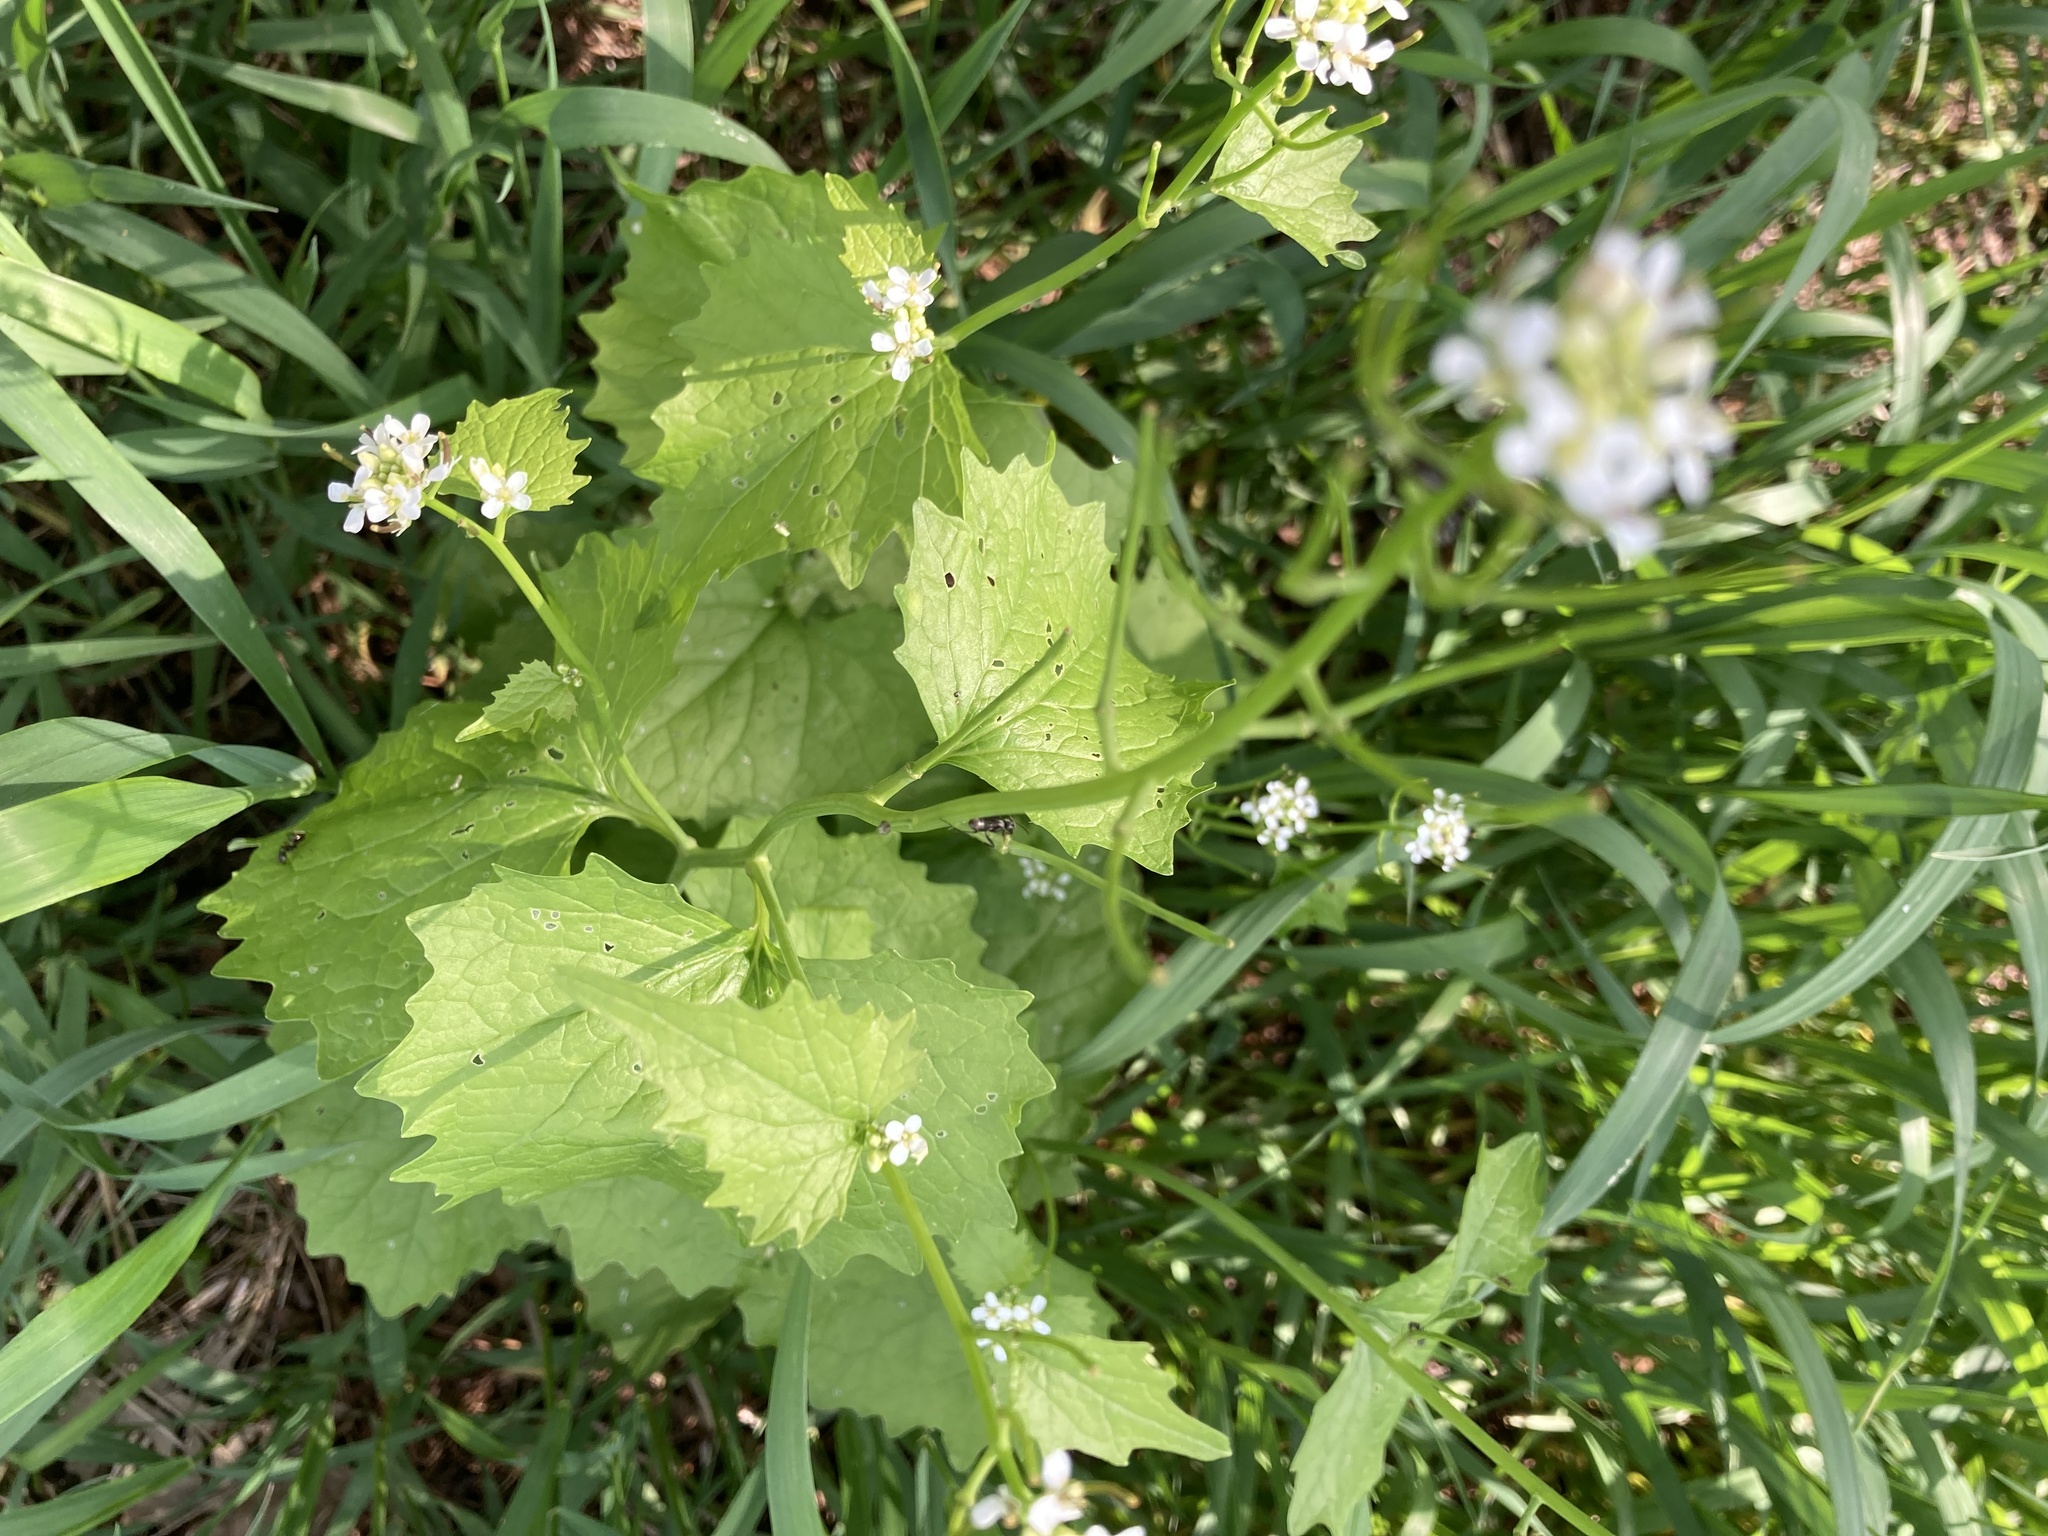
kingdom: Plantae
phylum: Tracheophyta
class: Magnoliopsida
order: Brassicales
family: Brassicaceae
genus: Alliaria
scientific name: Alliaria petiolata
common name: Garlic mustard
